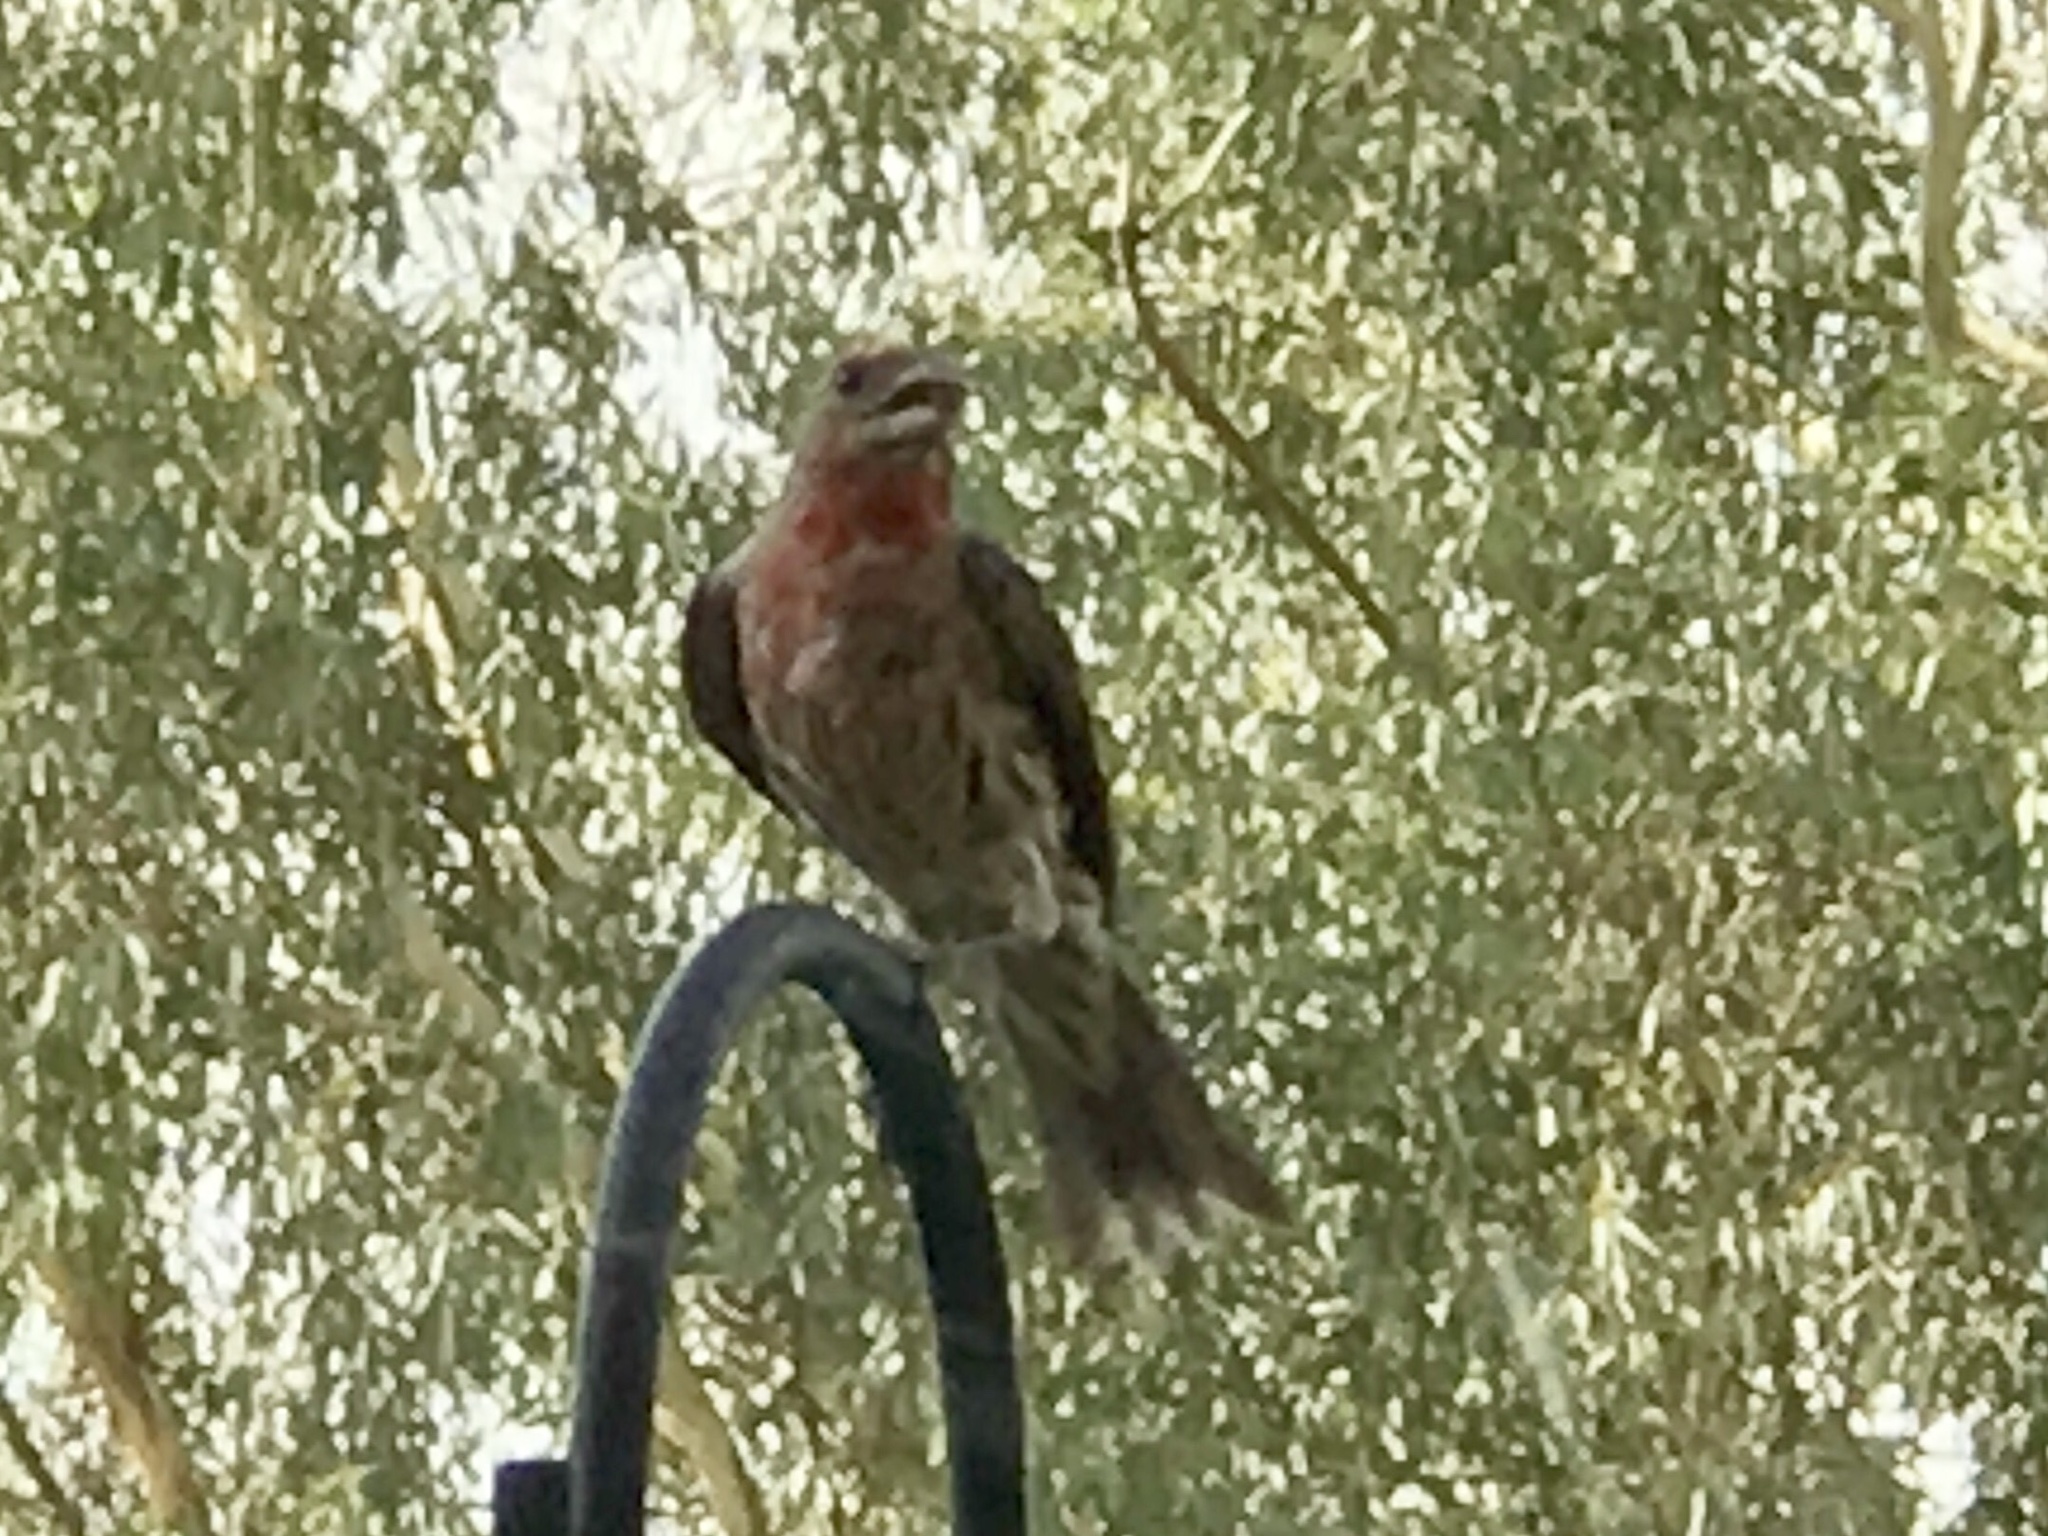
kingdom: Animalia
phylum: Chordata
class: Aves
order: Passeriformes
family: Fringillidae
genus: Haemorhous
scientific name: Haemorhous mexicanus
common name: House finch
